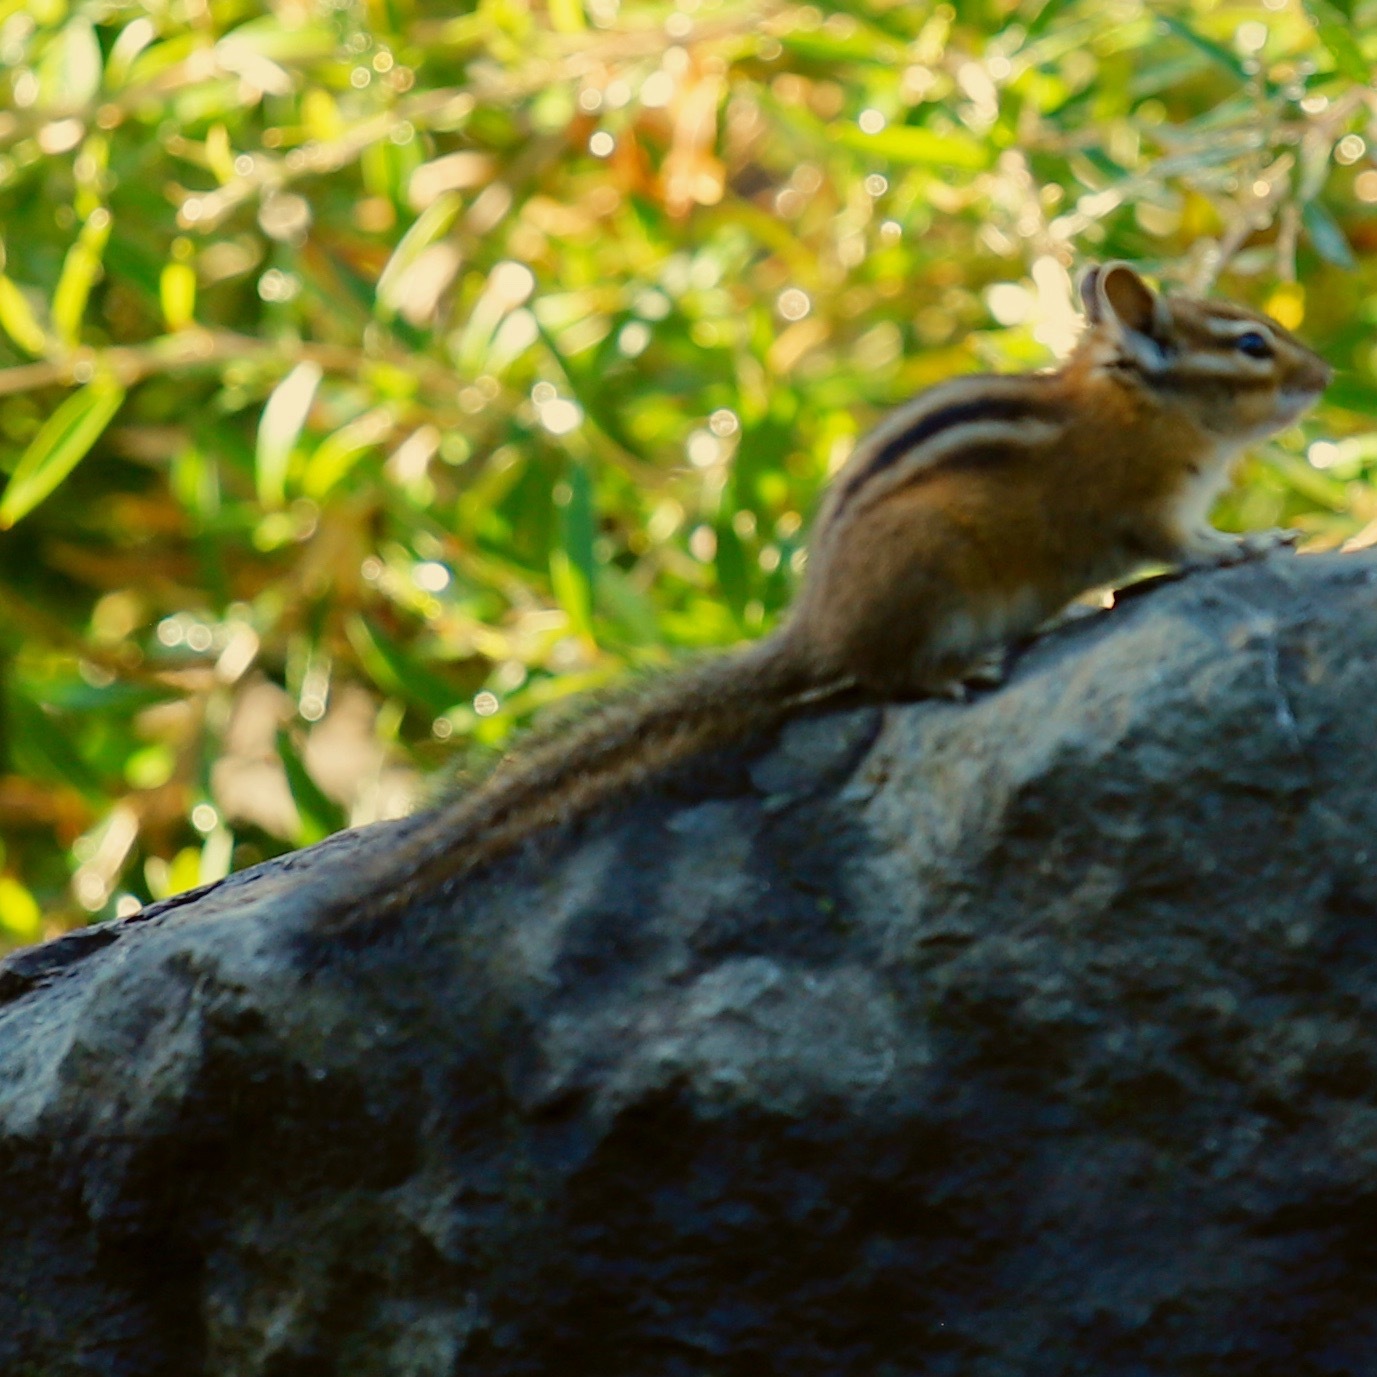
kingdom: Animalia
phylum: Chordata
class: Mammalia
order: Rodentia
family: Sciuridae
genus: Tamias
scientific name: Tamias townsendii
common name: Townsend's chipmunk
